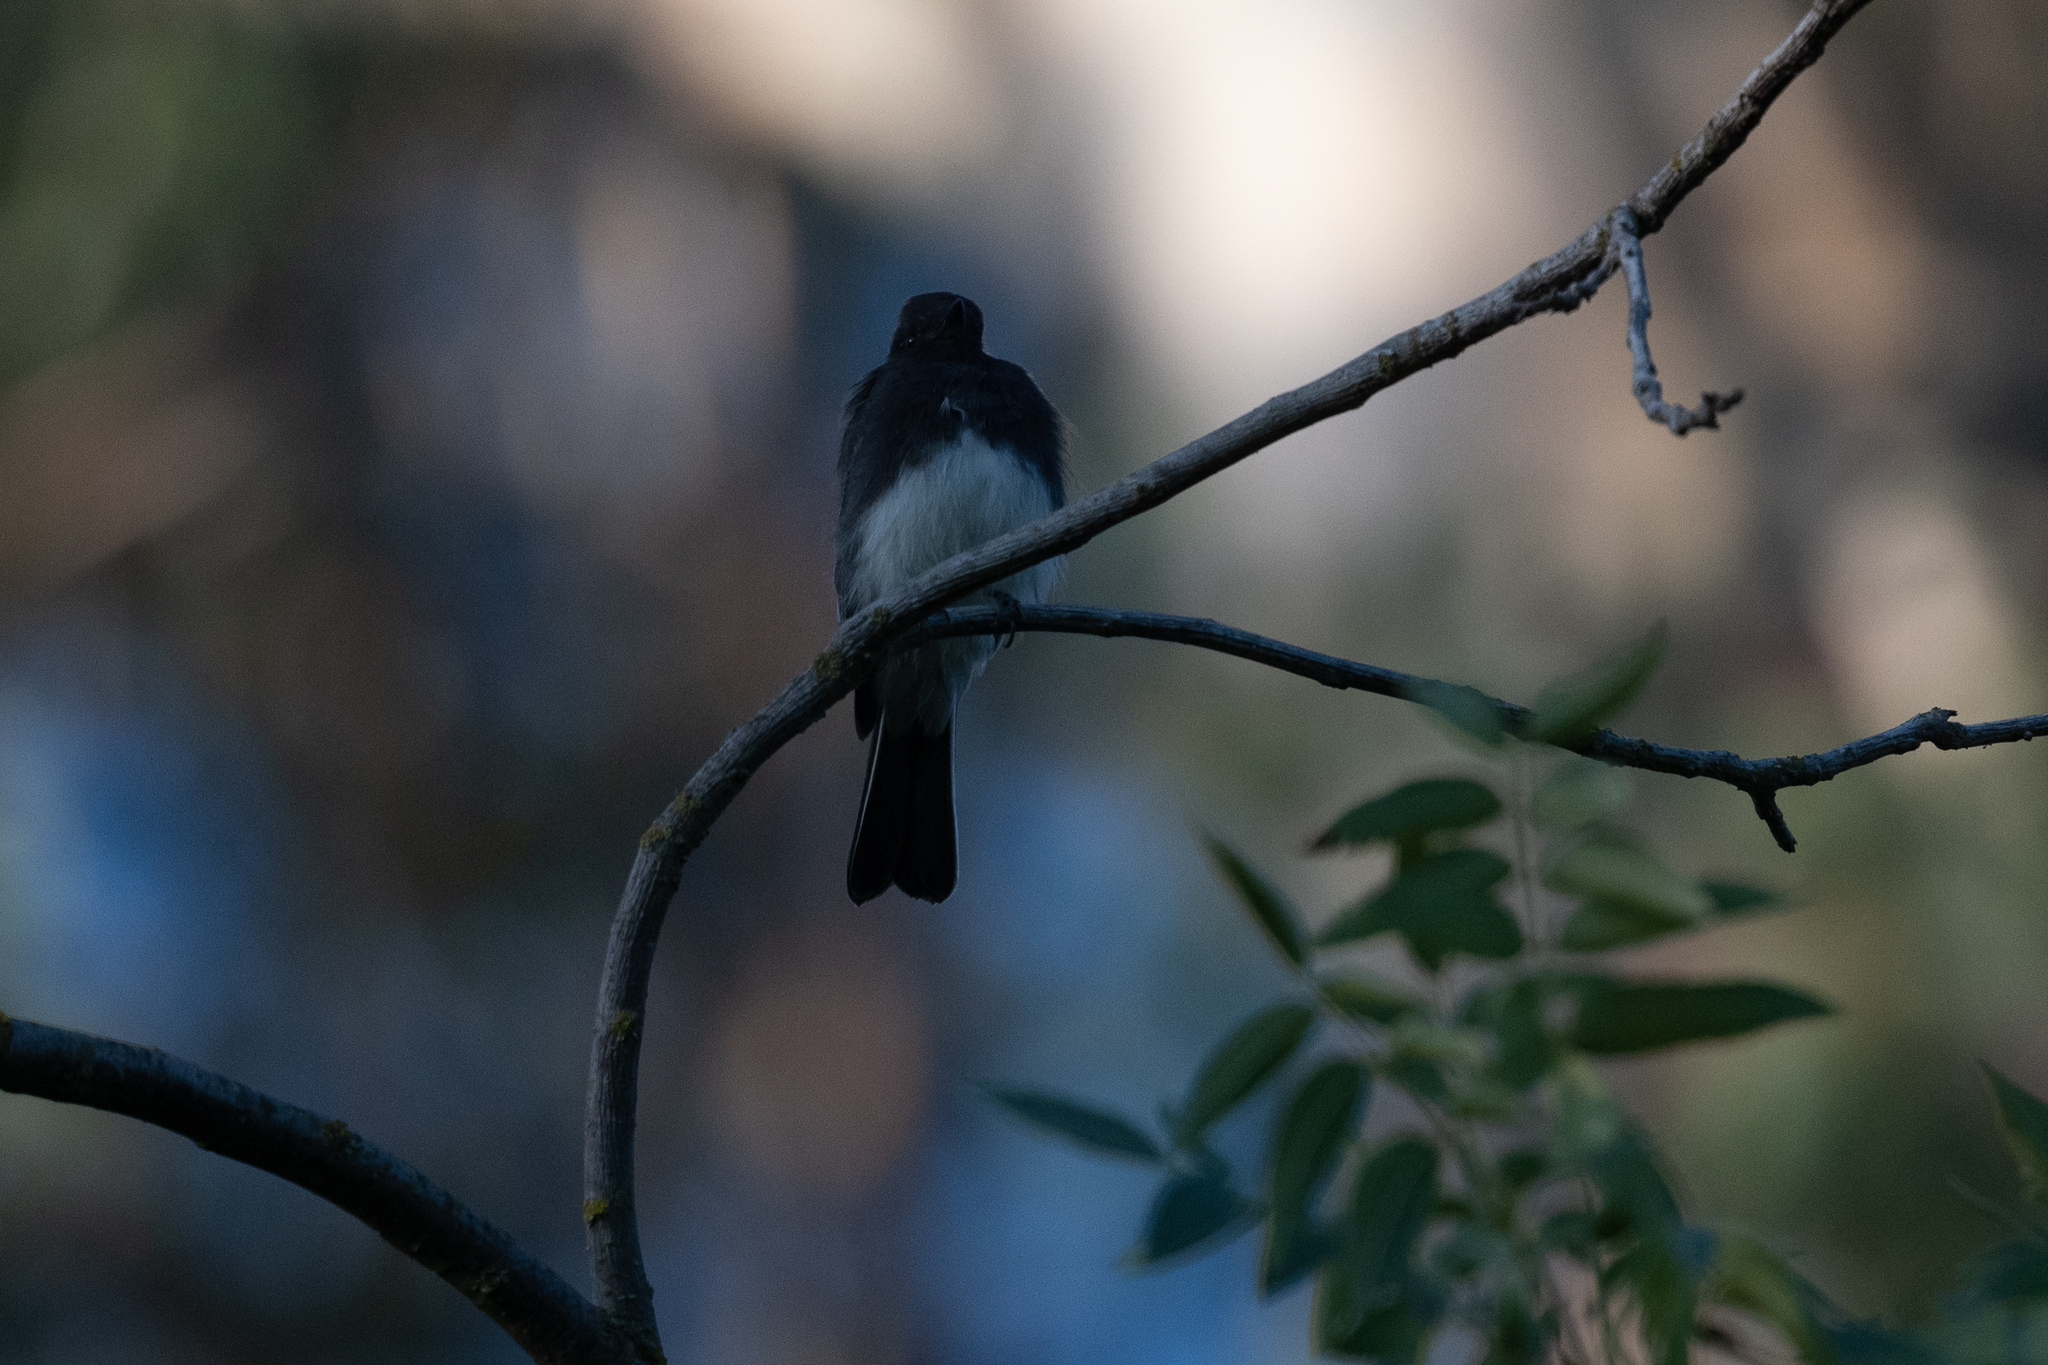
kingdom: Animalia
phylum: Chordata
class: Aves
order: Passeriformes
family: Tyrannidae
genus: Sayornis
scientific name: Sayornis nigricans
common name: Black phoebe
